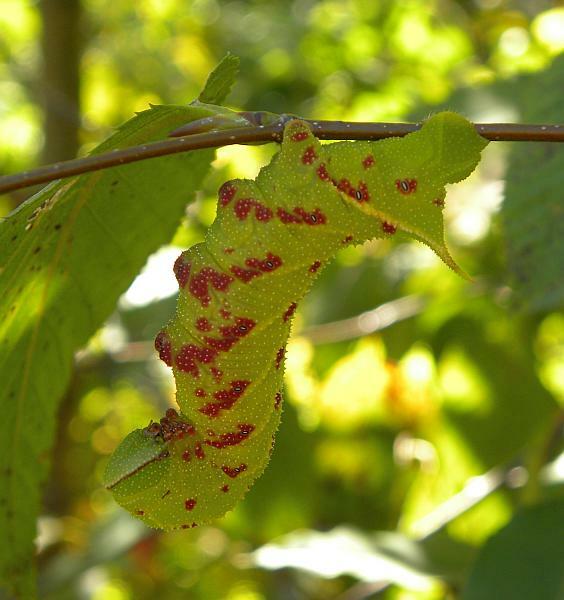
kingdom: Animalia
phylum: Arthropoda
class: Insecta
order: Lepidoptera
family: Sphingidae
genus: Paonias
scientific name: Paonias excaecata
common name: Blind-eyed sphinx
